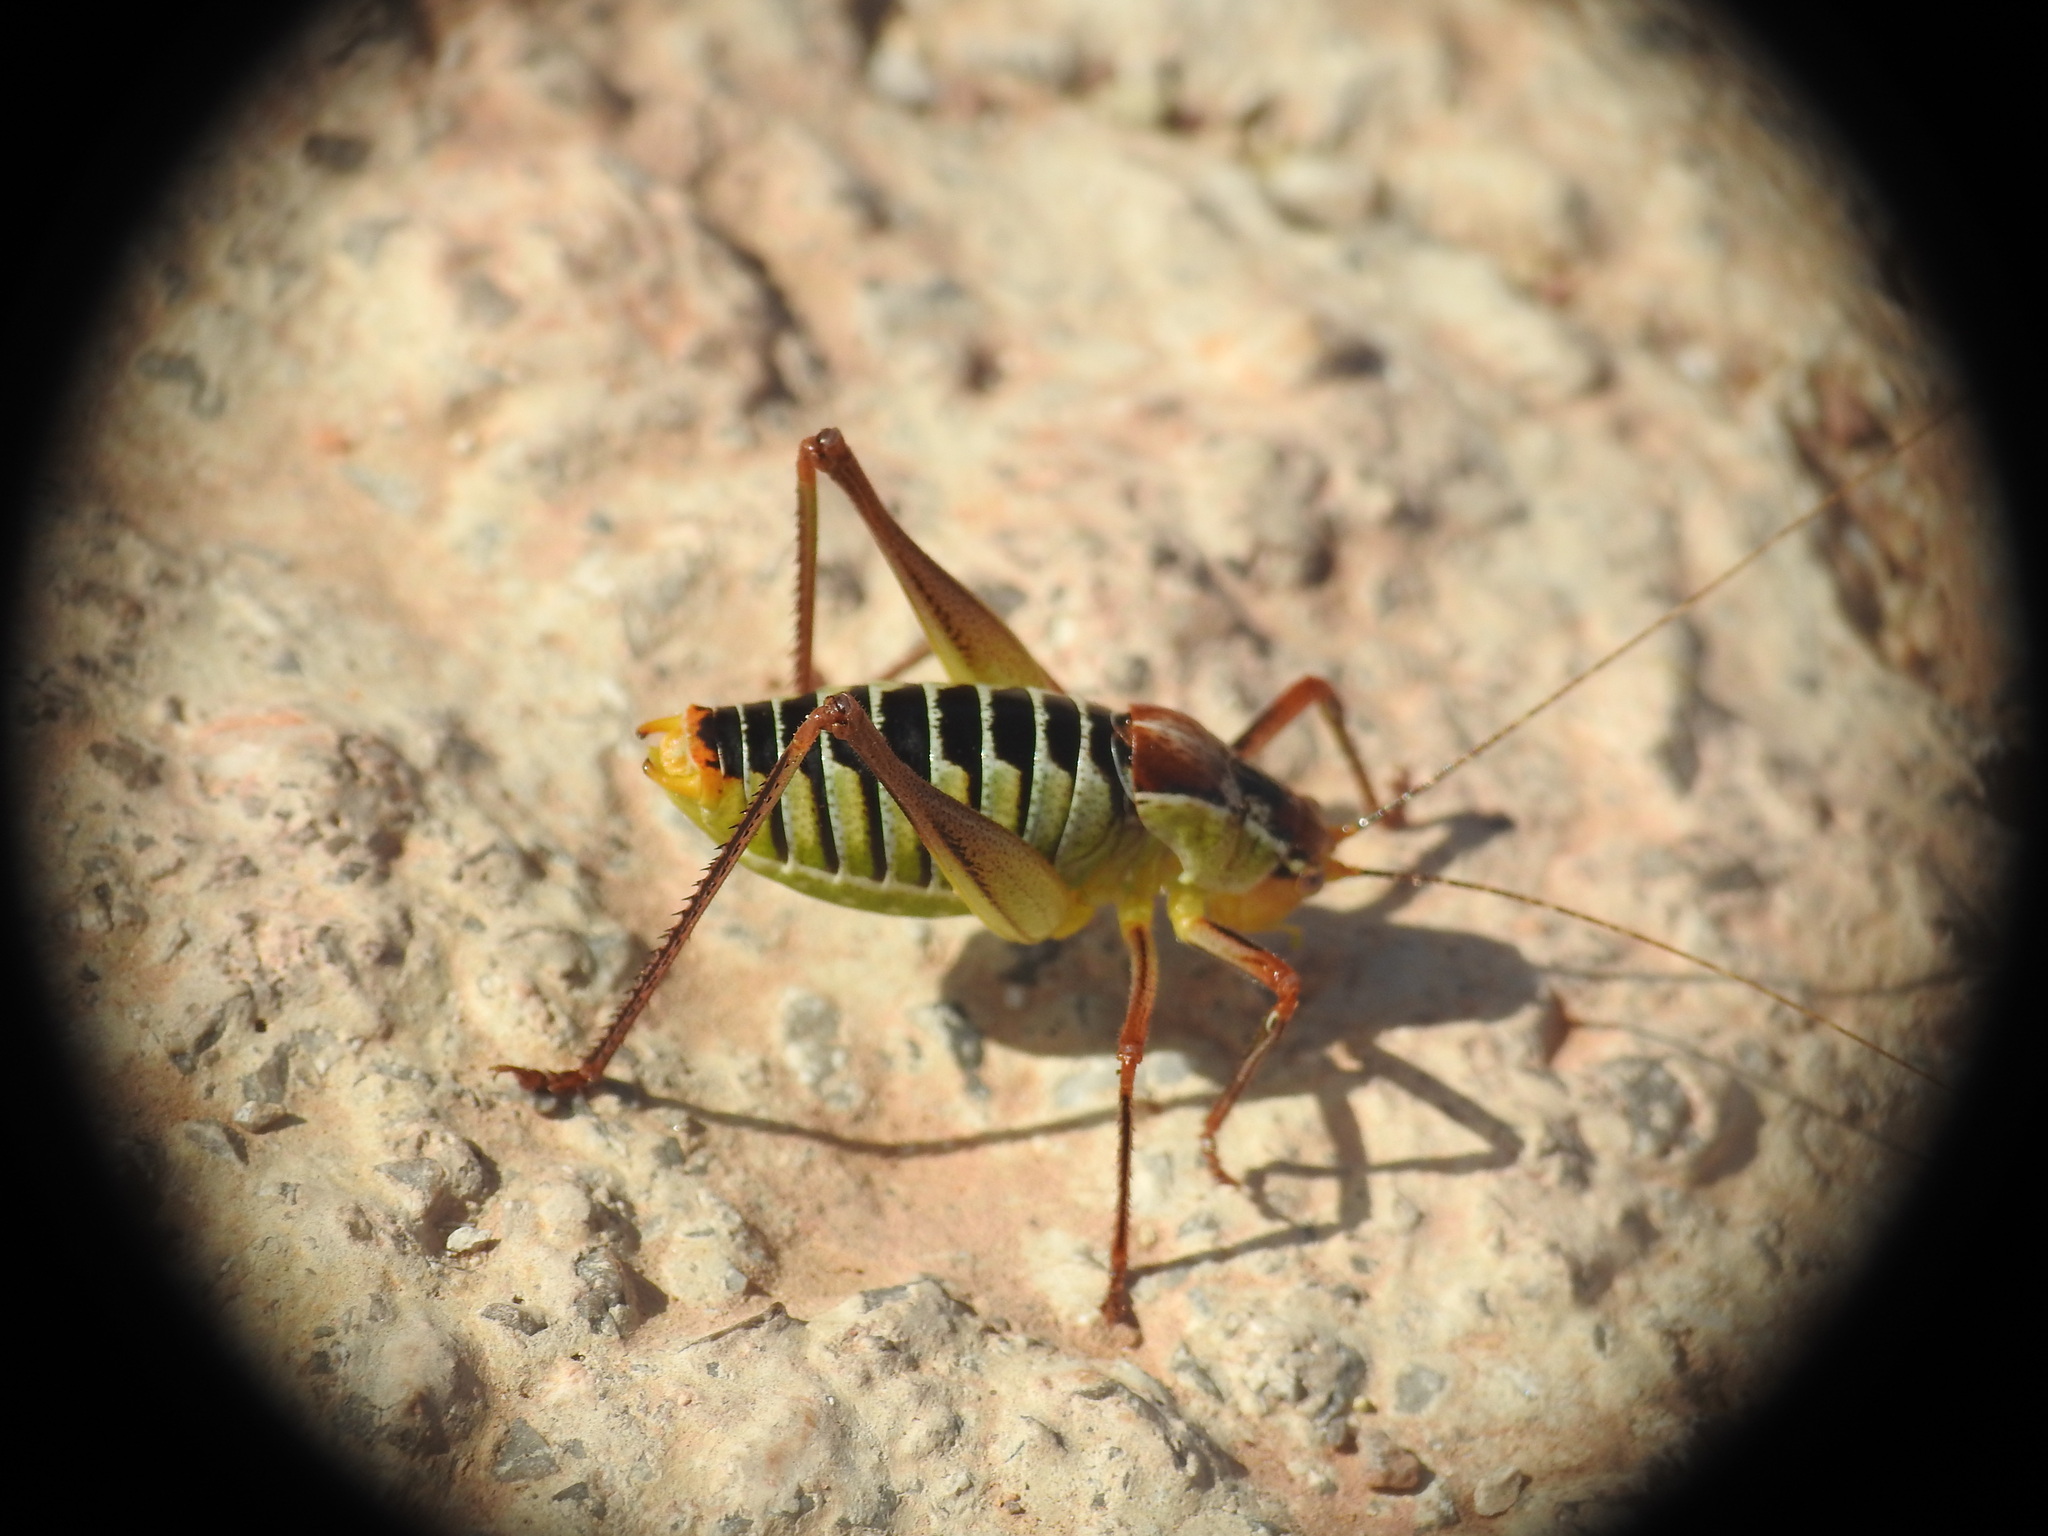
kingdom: Animalia
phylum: Arthropoda
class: Insecta
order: Orthoptera
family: Tettigoniidae
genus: Poecilimon
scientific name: Poecilimon cretensis
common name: Cretan bright bush-cricket
